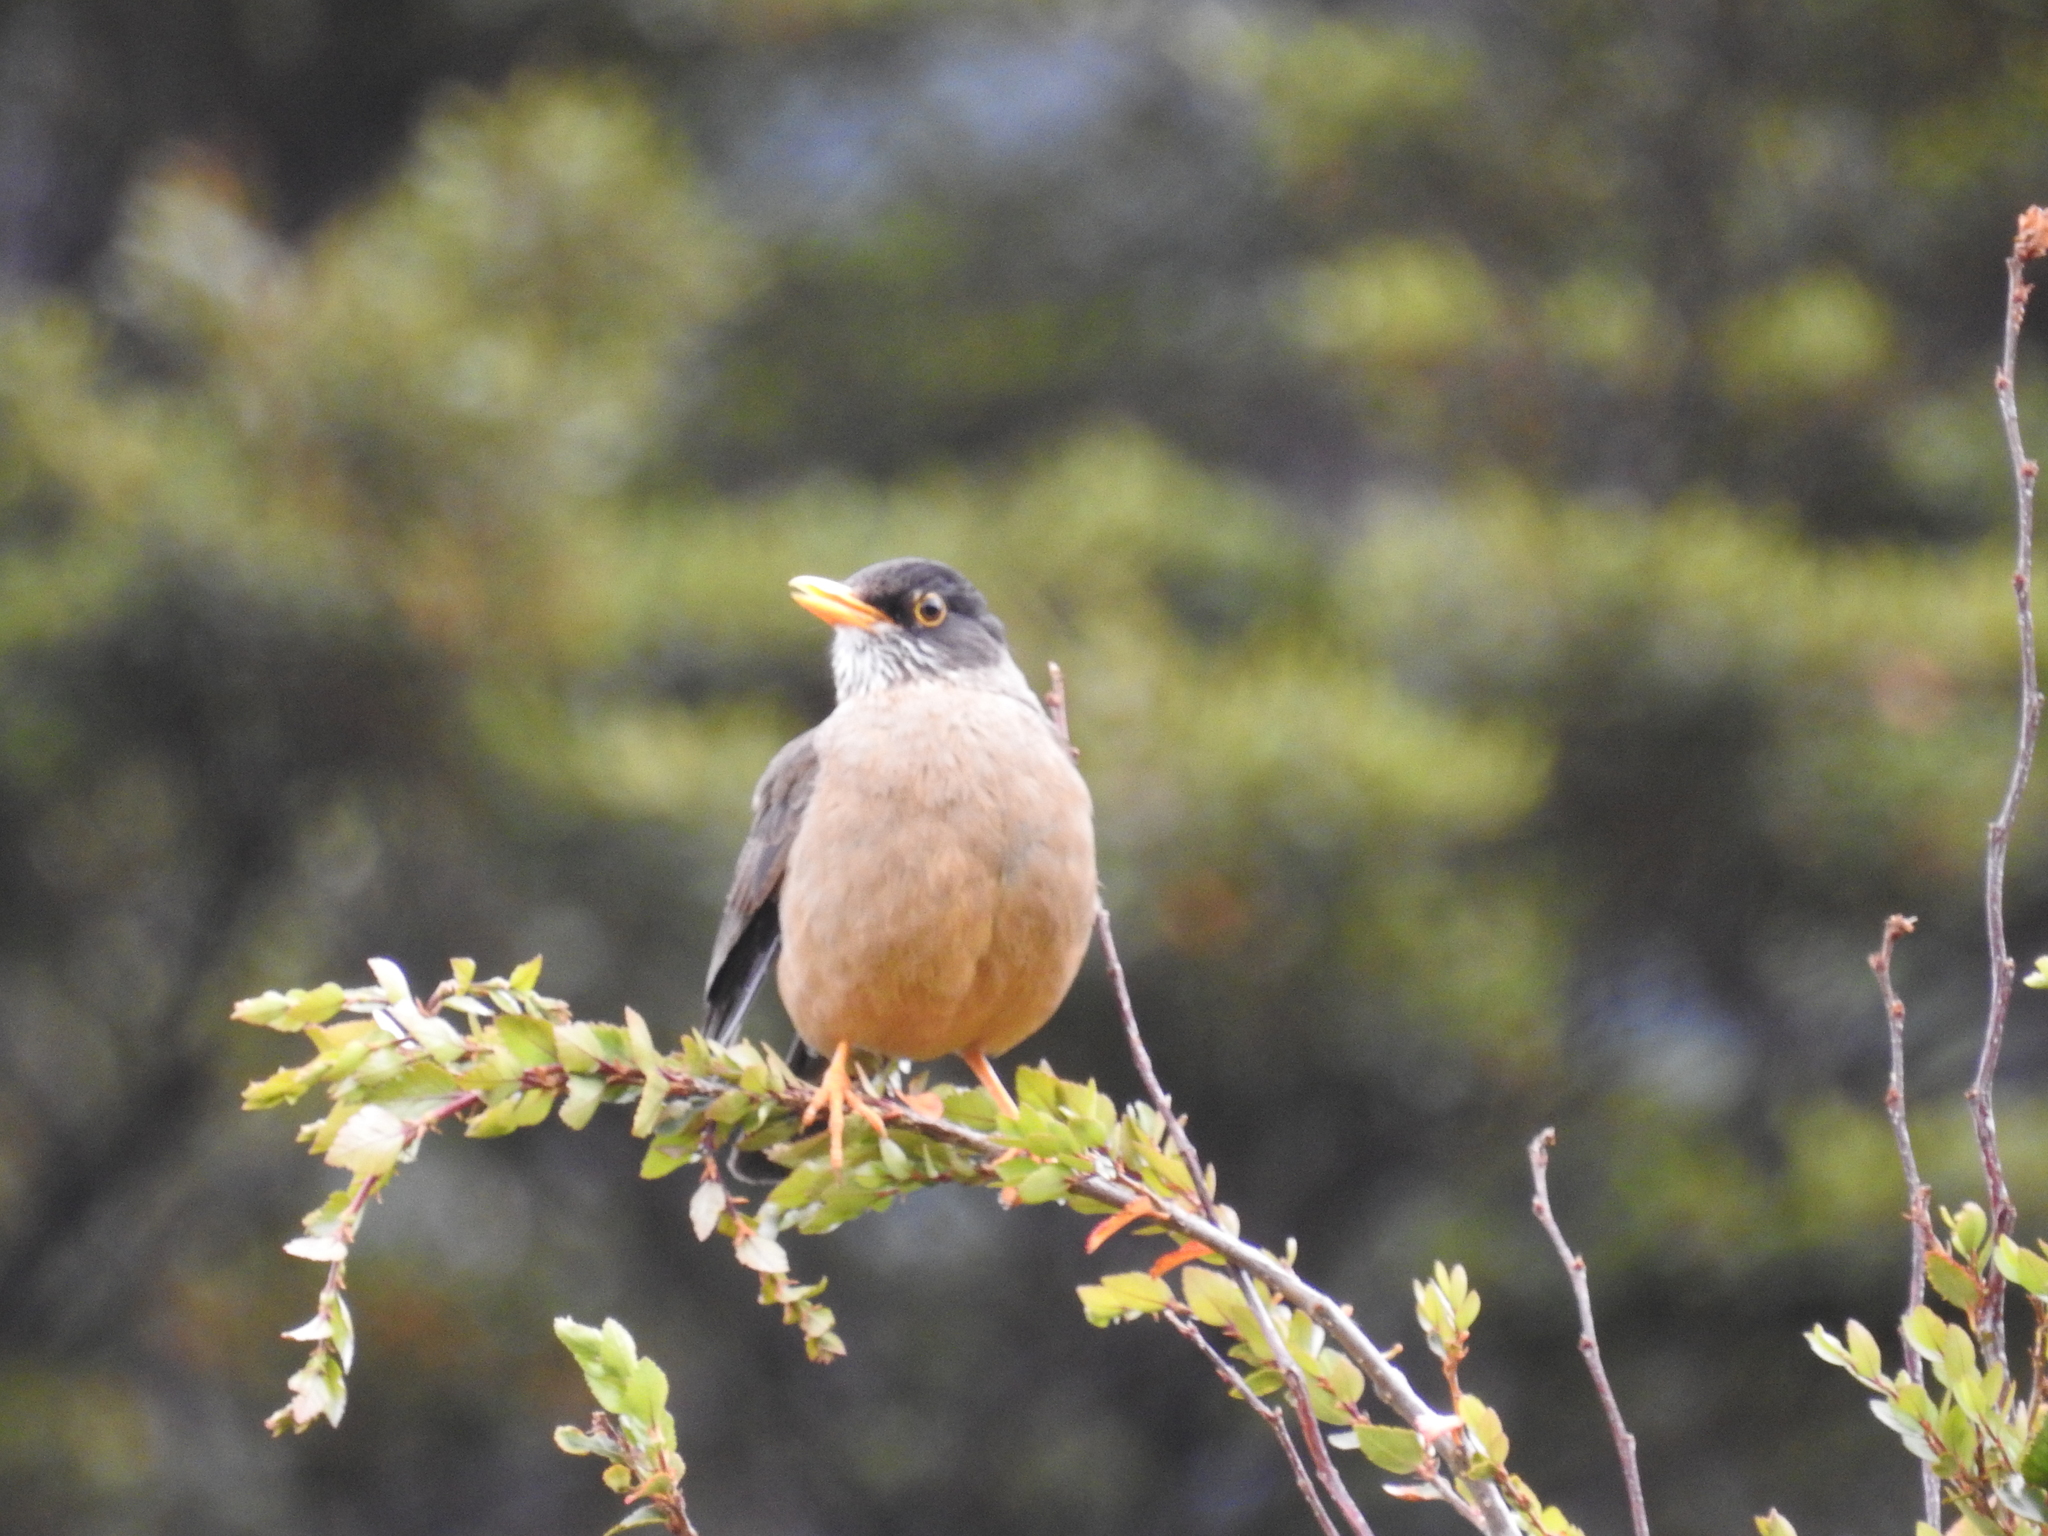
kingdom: Animalia
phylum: Chordata
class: Aves
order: Passeriformes
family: Turdidae
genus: Turdus
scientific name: Turdus falcklandii
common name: Austral thrush
